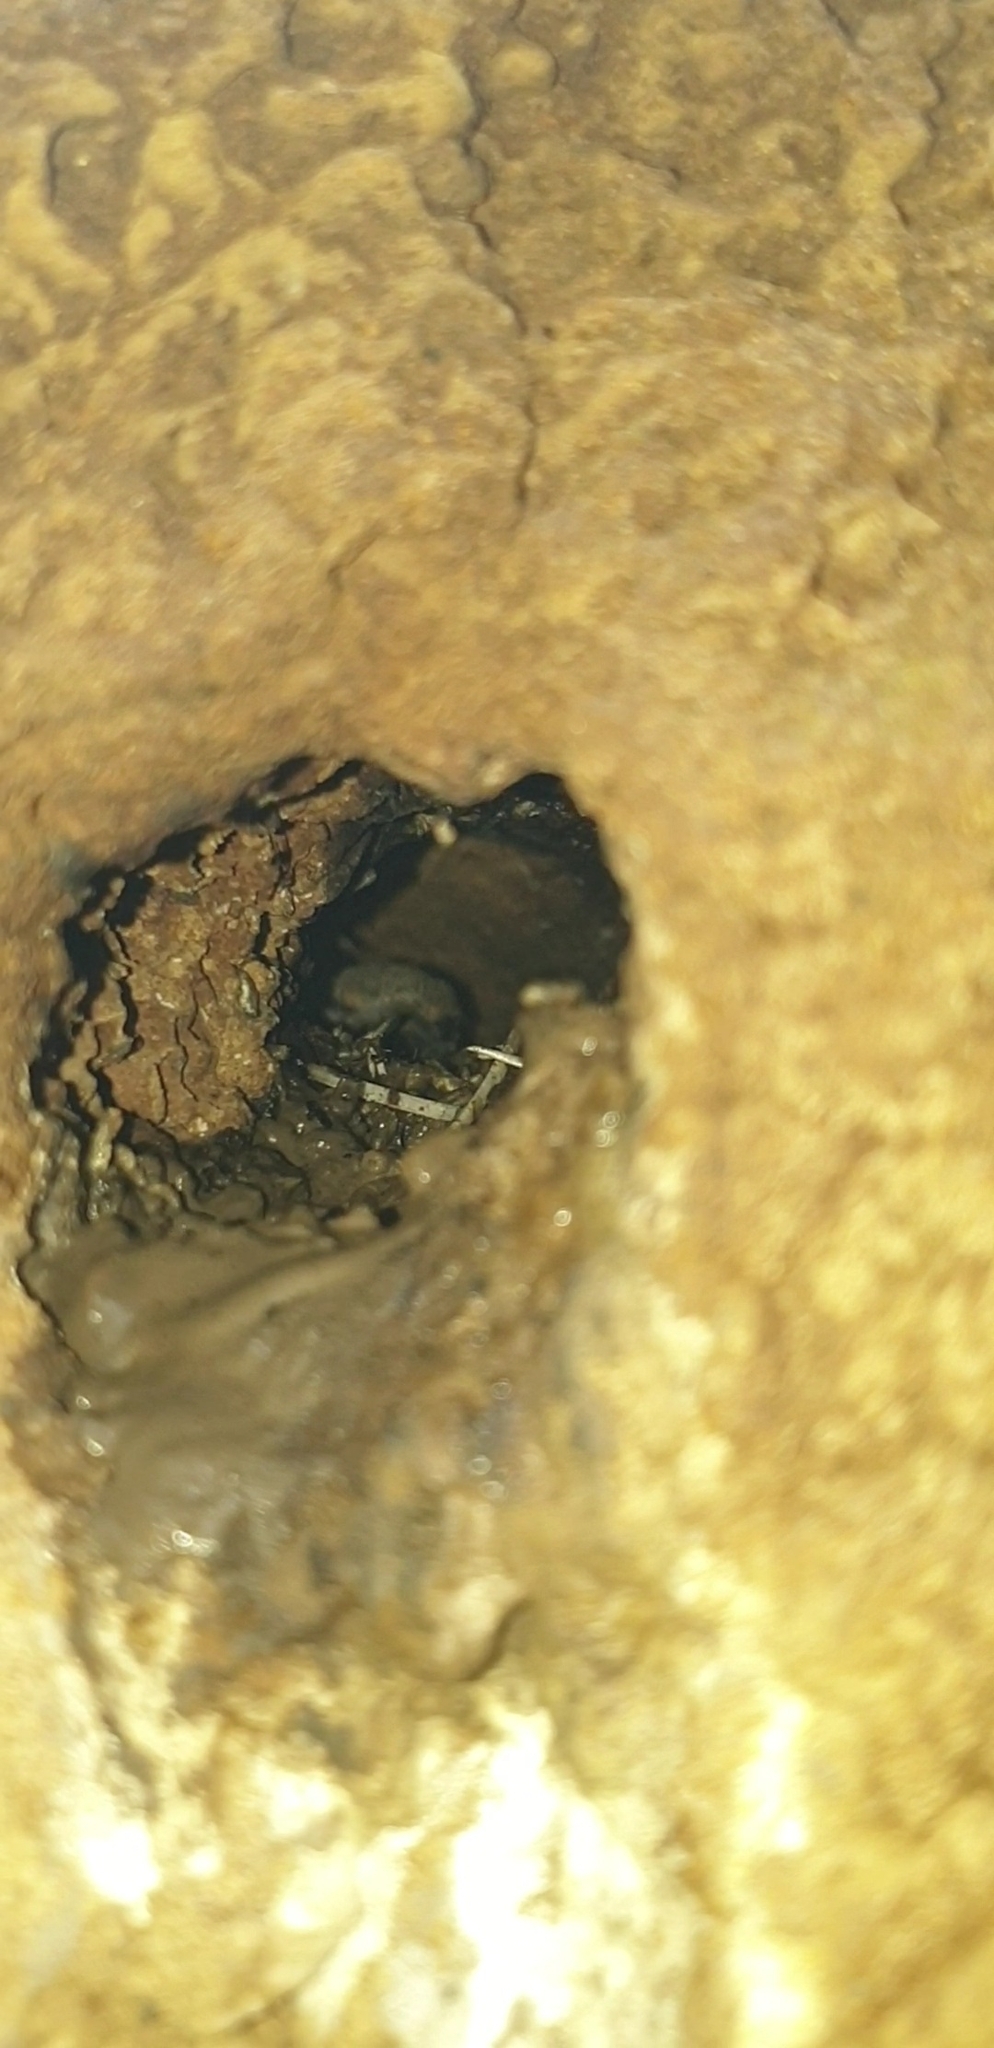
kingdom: Animalia
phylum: Chordata
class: Aves
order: Coraciiformes
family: Alcedinidae
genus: Todiramphus
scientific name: Todiramphus sanctus
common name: Sacred kingfisher
